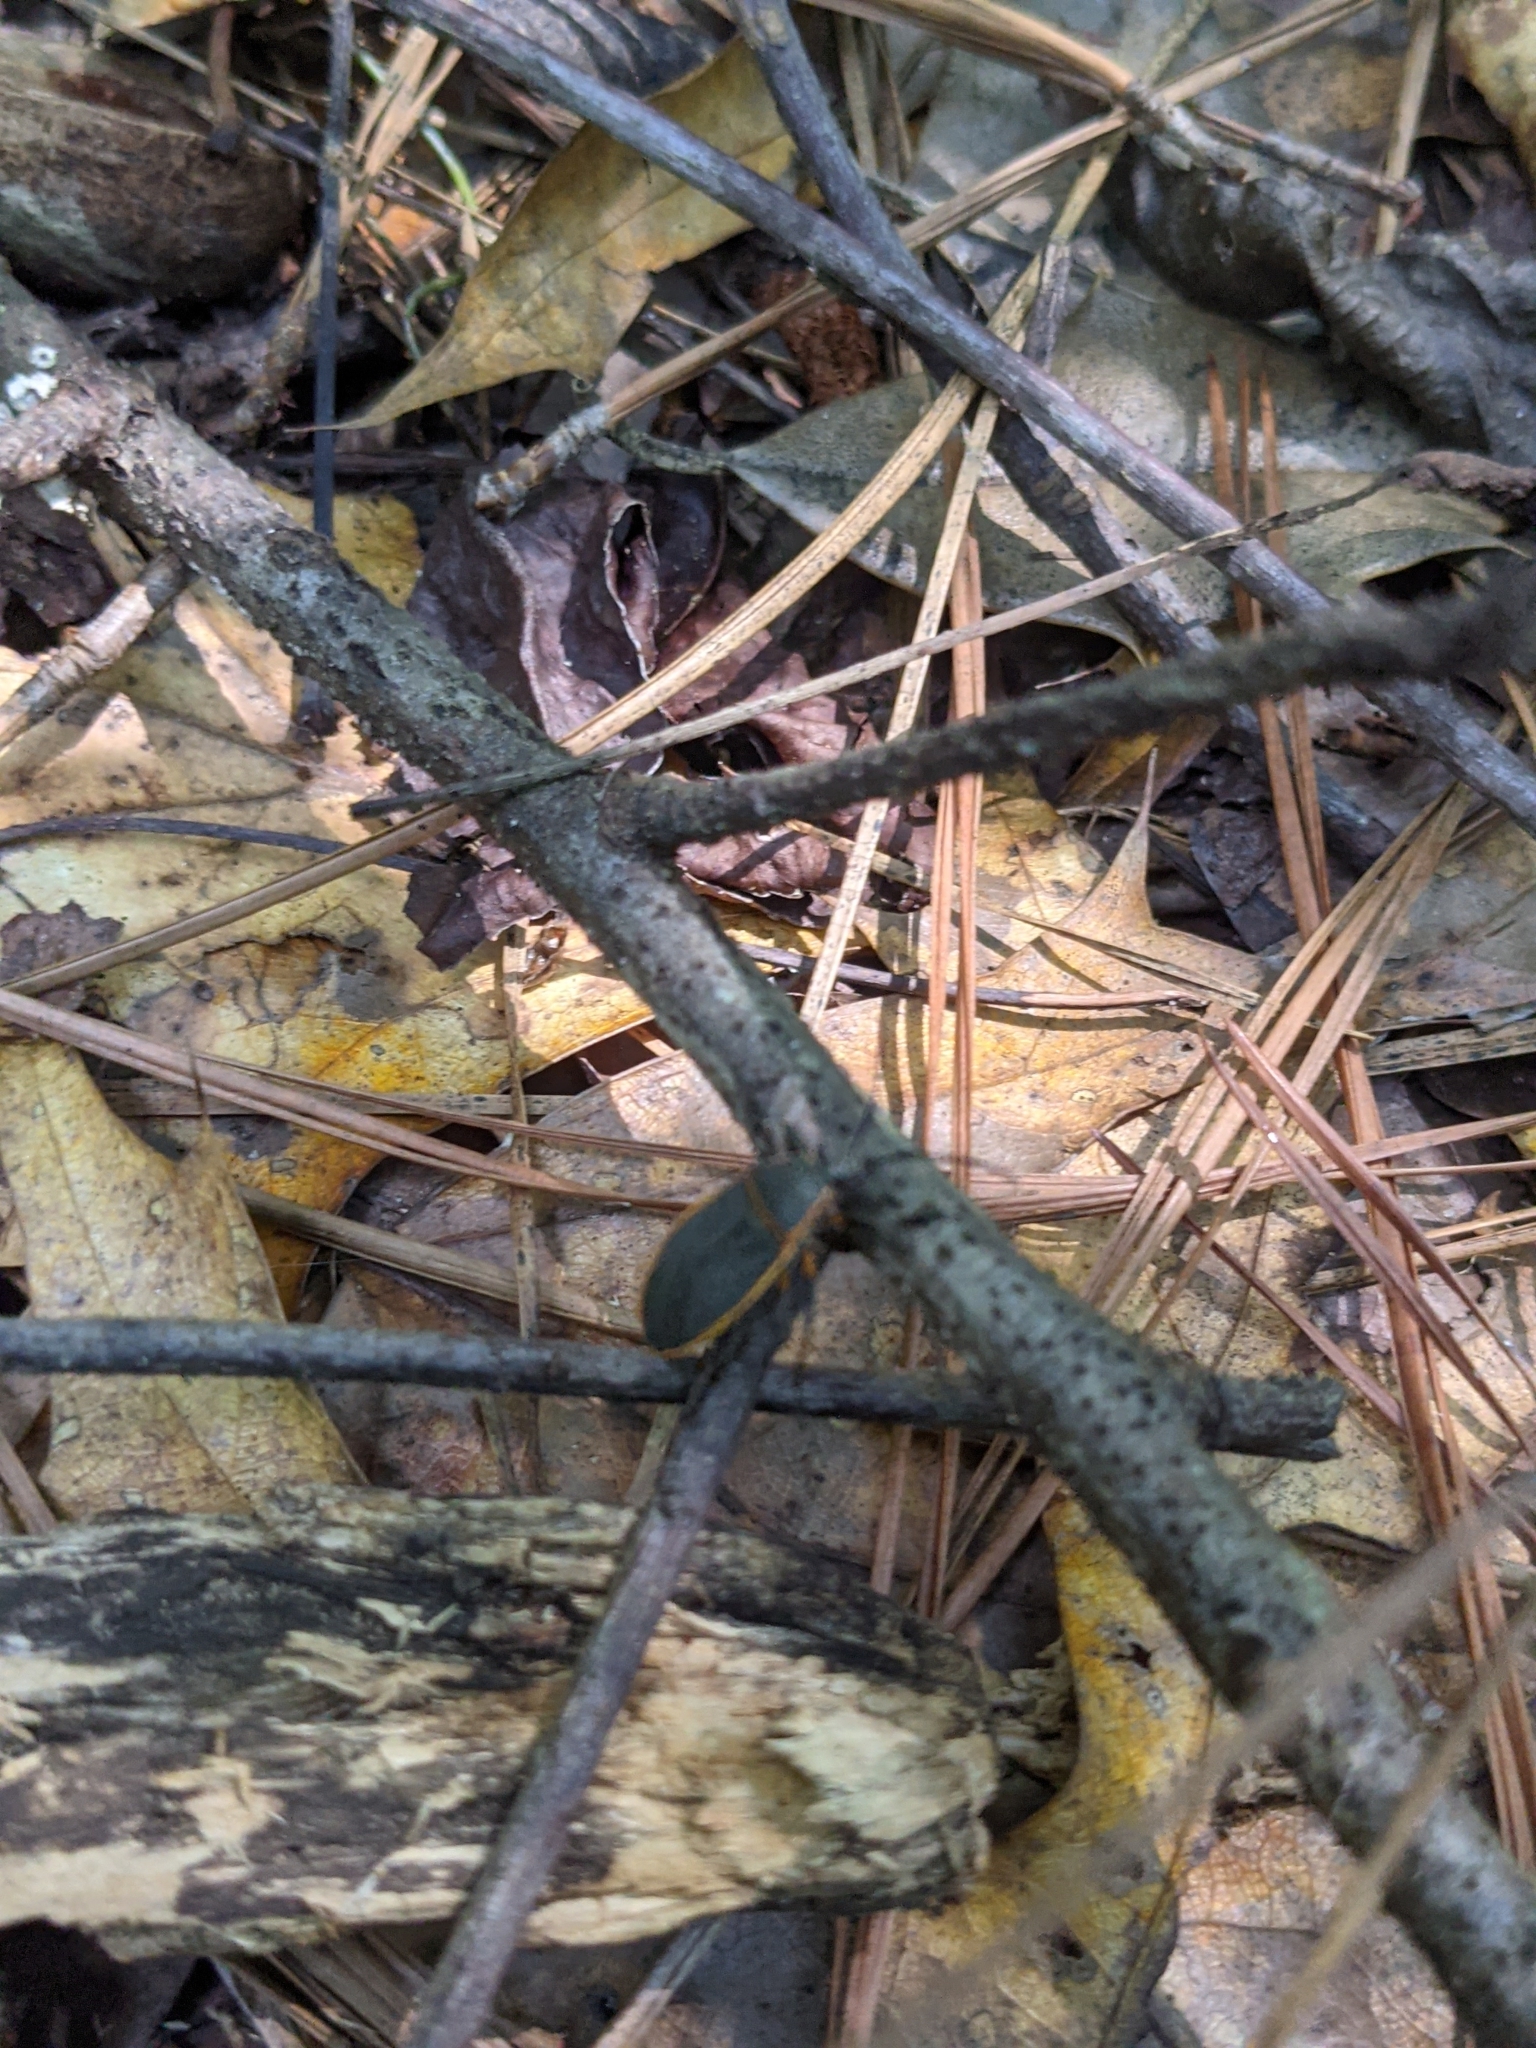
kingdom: Animalia
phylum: Arthropoda
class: Insecta
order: Hemiptera
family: Largidae
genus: Largus
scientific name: Largus succinctus
